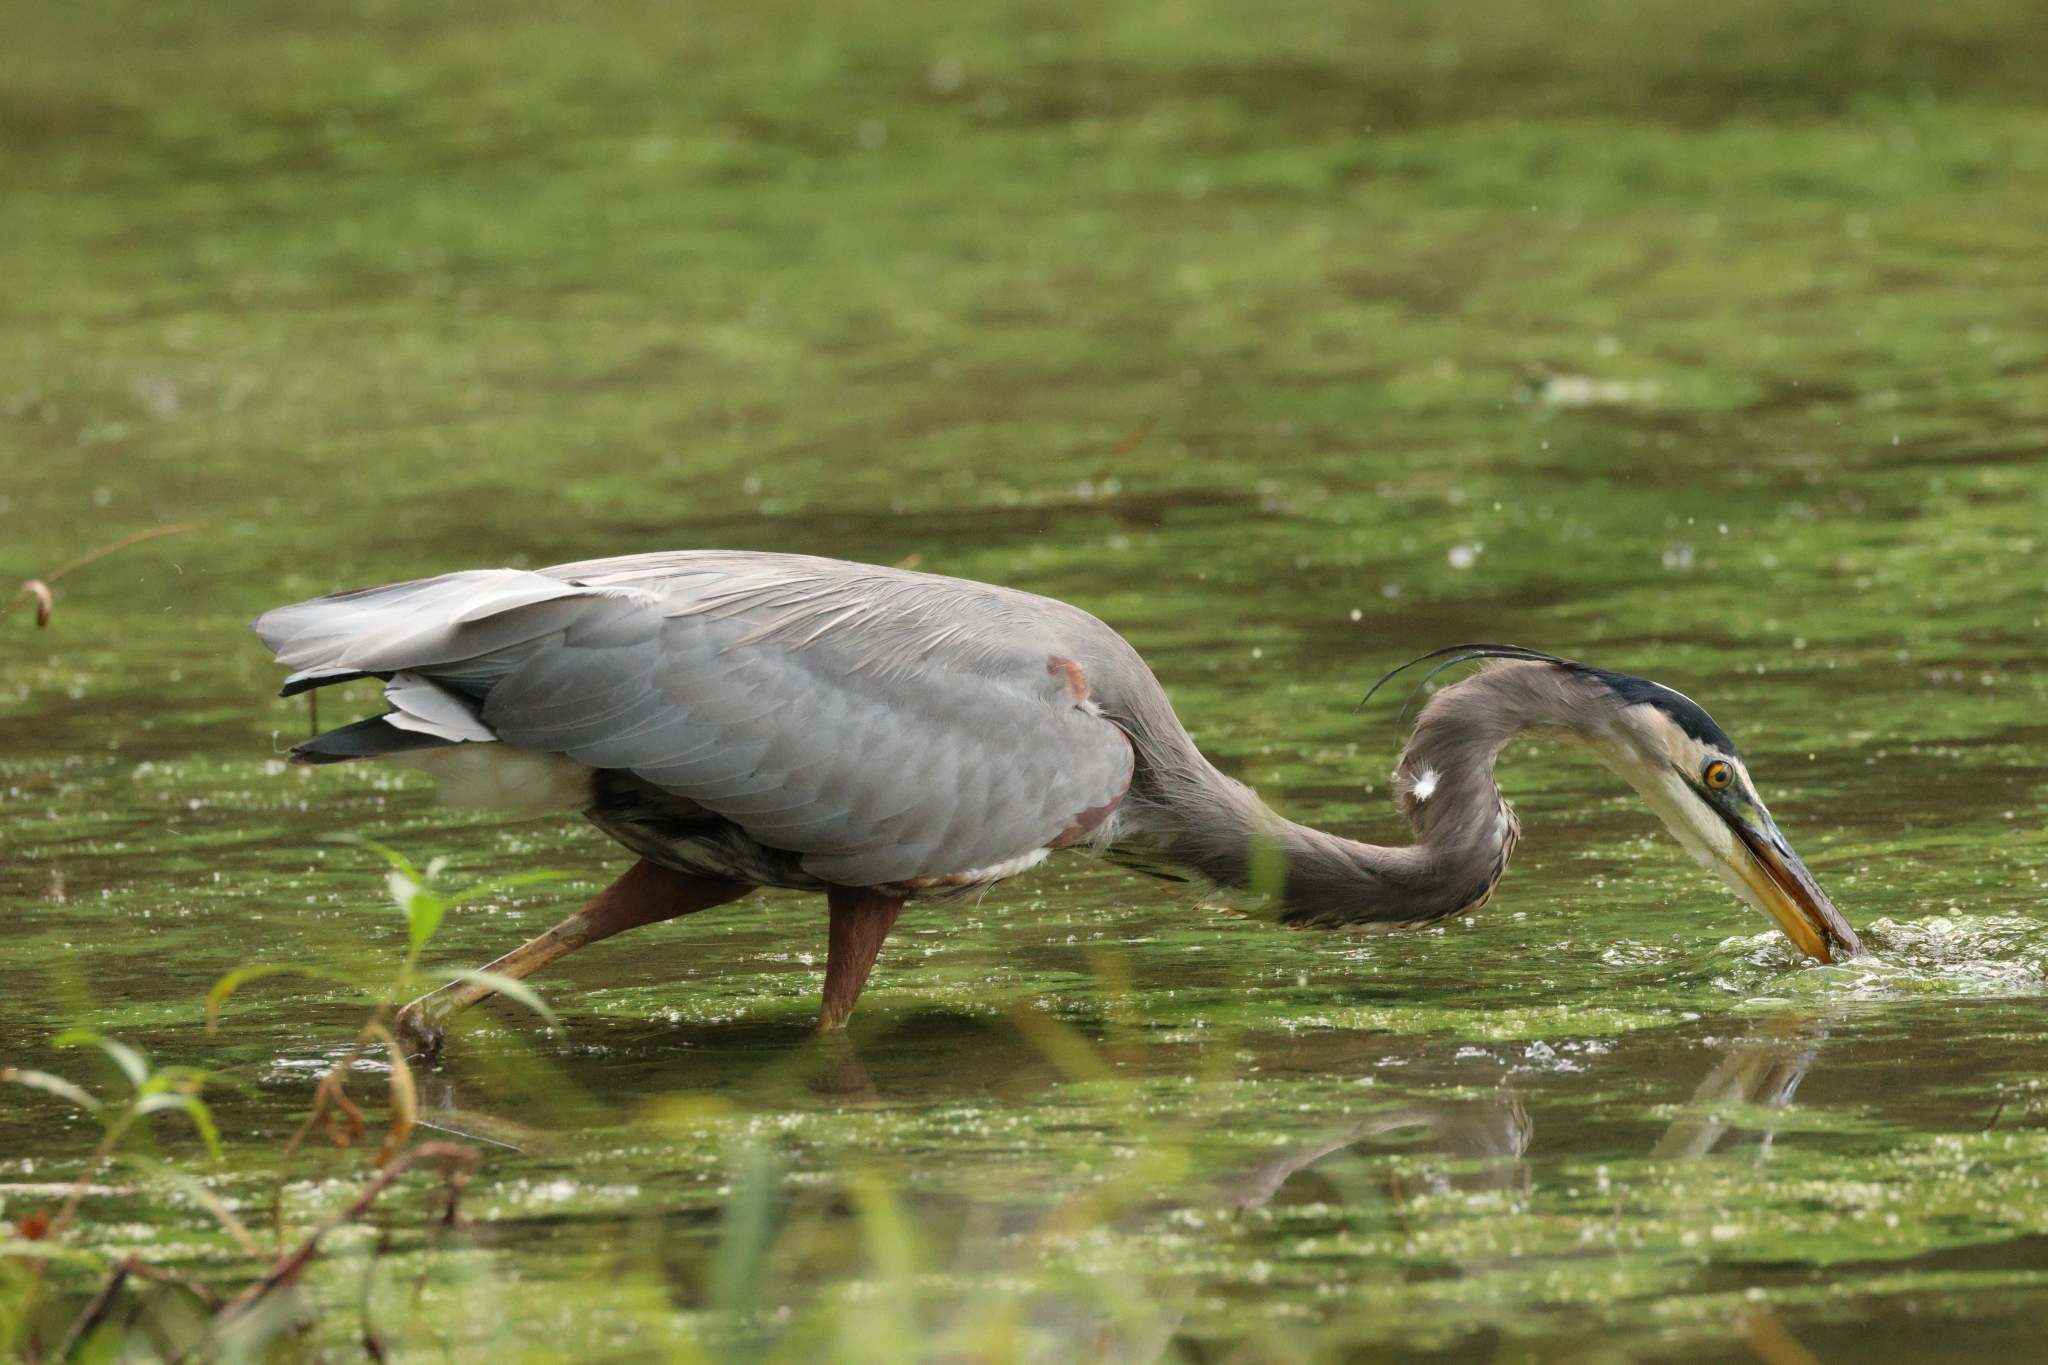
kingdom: Animalia
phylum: Chordata
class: Aves
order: Pelecaniformes
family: Ardeidae
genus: Ardea
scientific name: Ardea herodias
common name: Great blue heron
